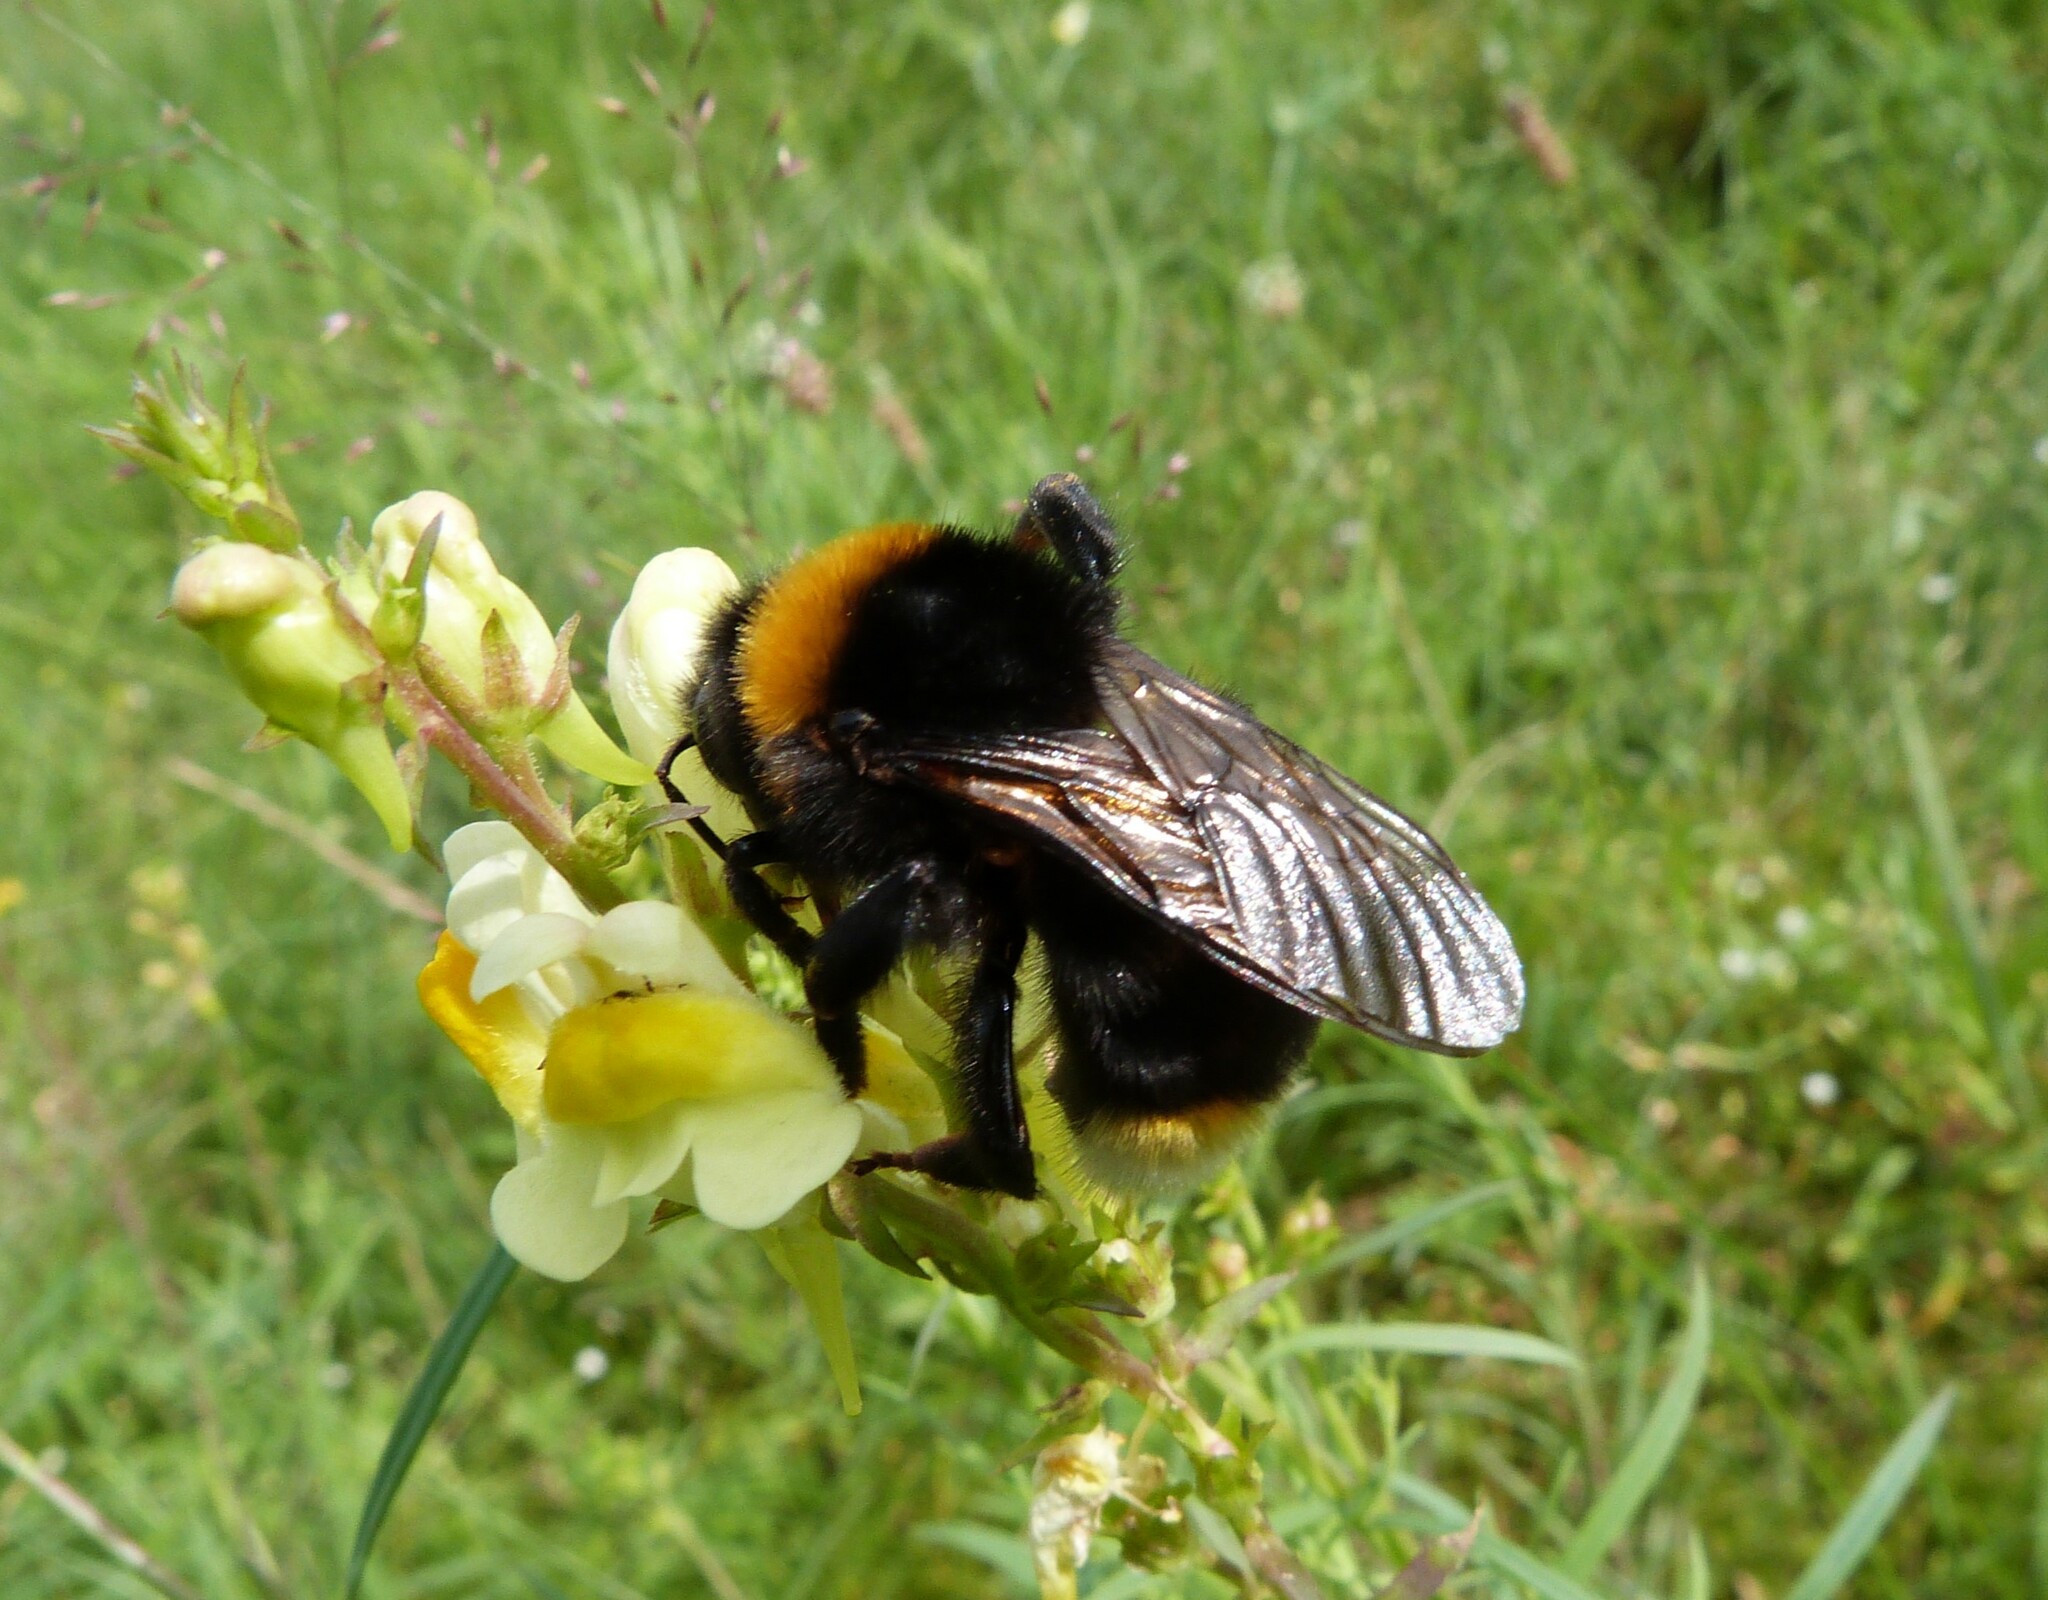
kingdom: Animalia
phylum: Arthropoda
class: Insecta
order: Hymenoptera
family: Apidae
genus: Bombus
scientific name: Bombus vestalis
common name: Vestal cuckoo bee
